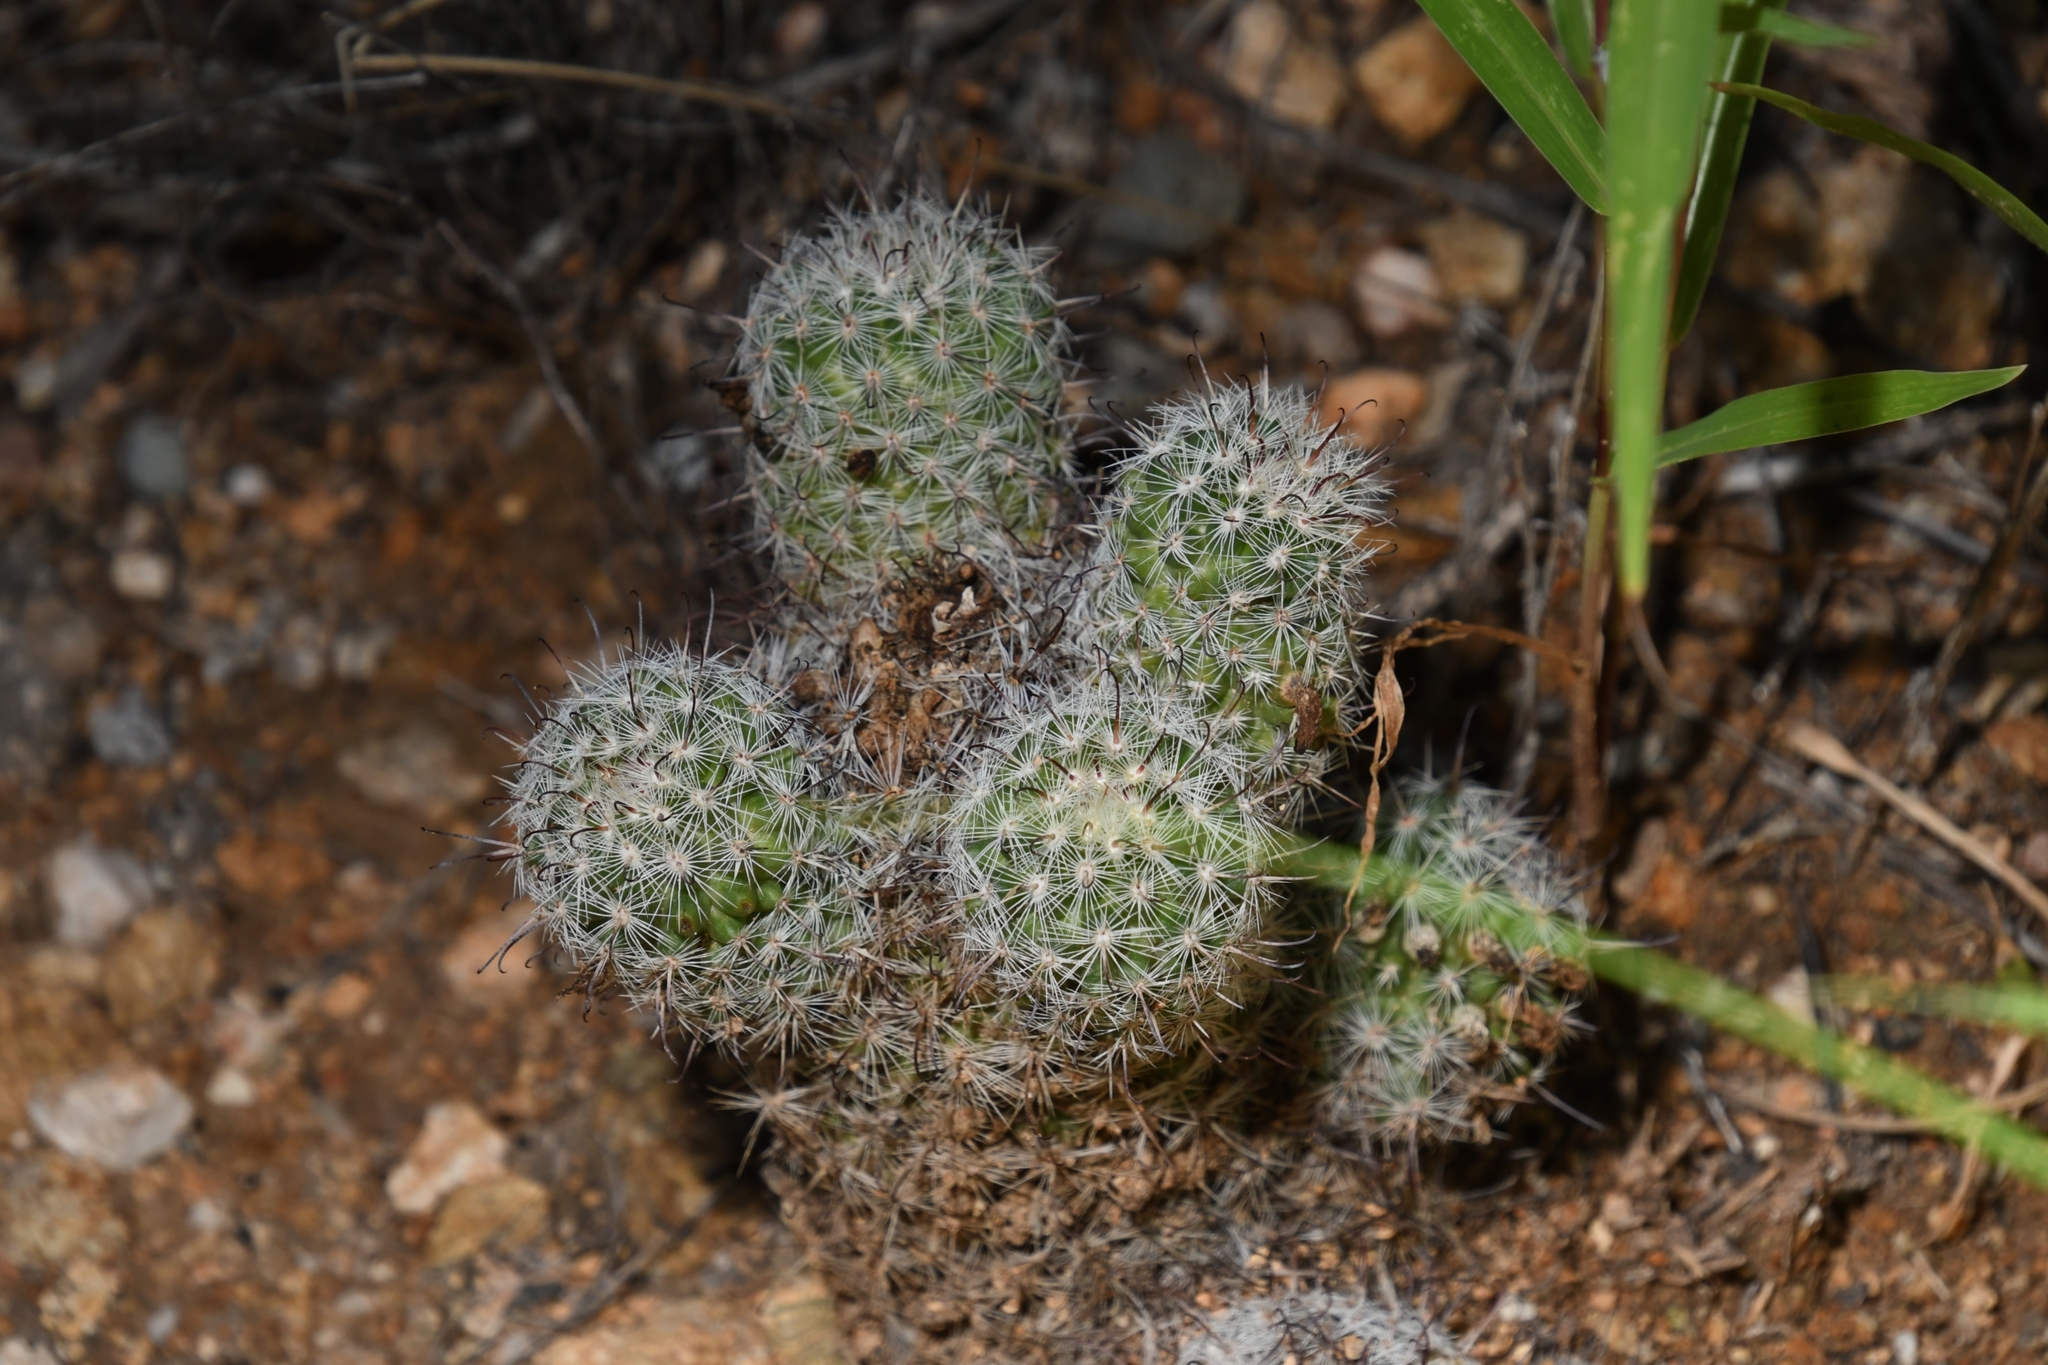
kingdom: Plantae
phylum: Tracheophyta
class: Magnoliopsida
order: Caryophyllales
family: Cactaceae
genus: Cochemiea
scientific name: Cochemiea grahamii
